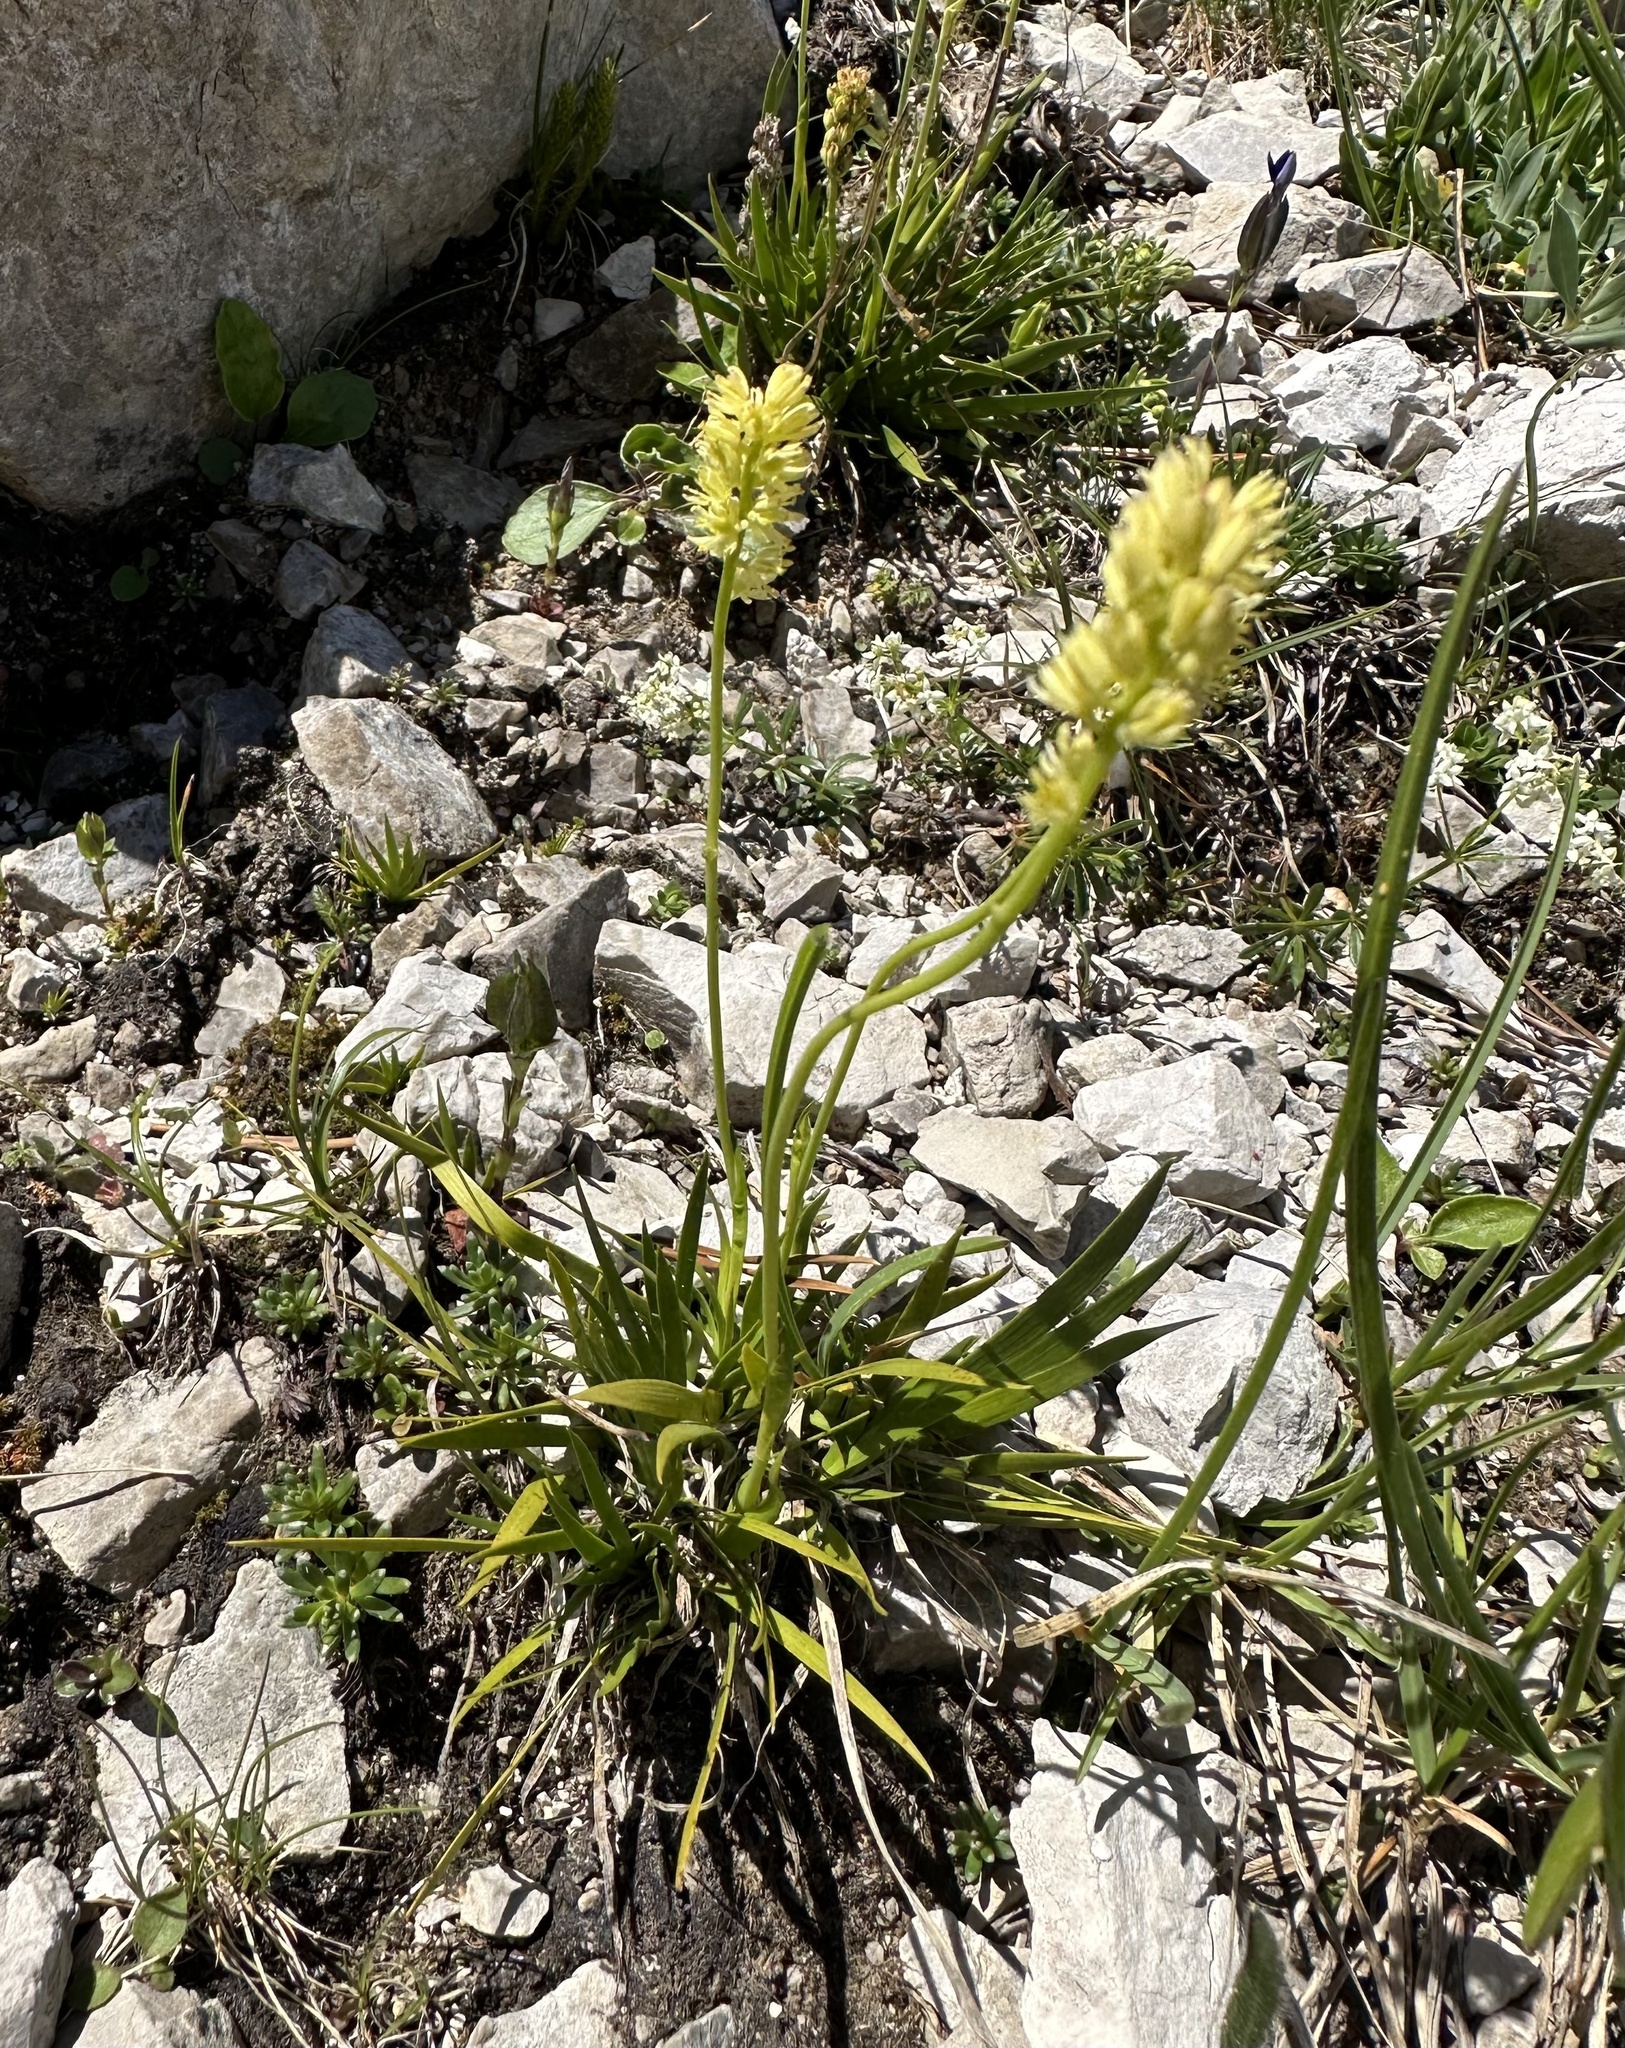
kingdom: Plantae
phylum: Tracheophyta
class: Liliopsida
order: Alismatales
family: Tofieldiaceae
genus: Tofieldia
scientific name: Tofieldia calyculata
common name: German-asphodel
